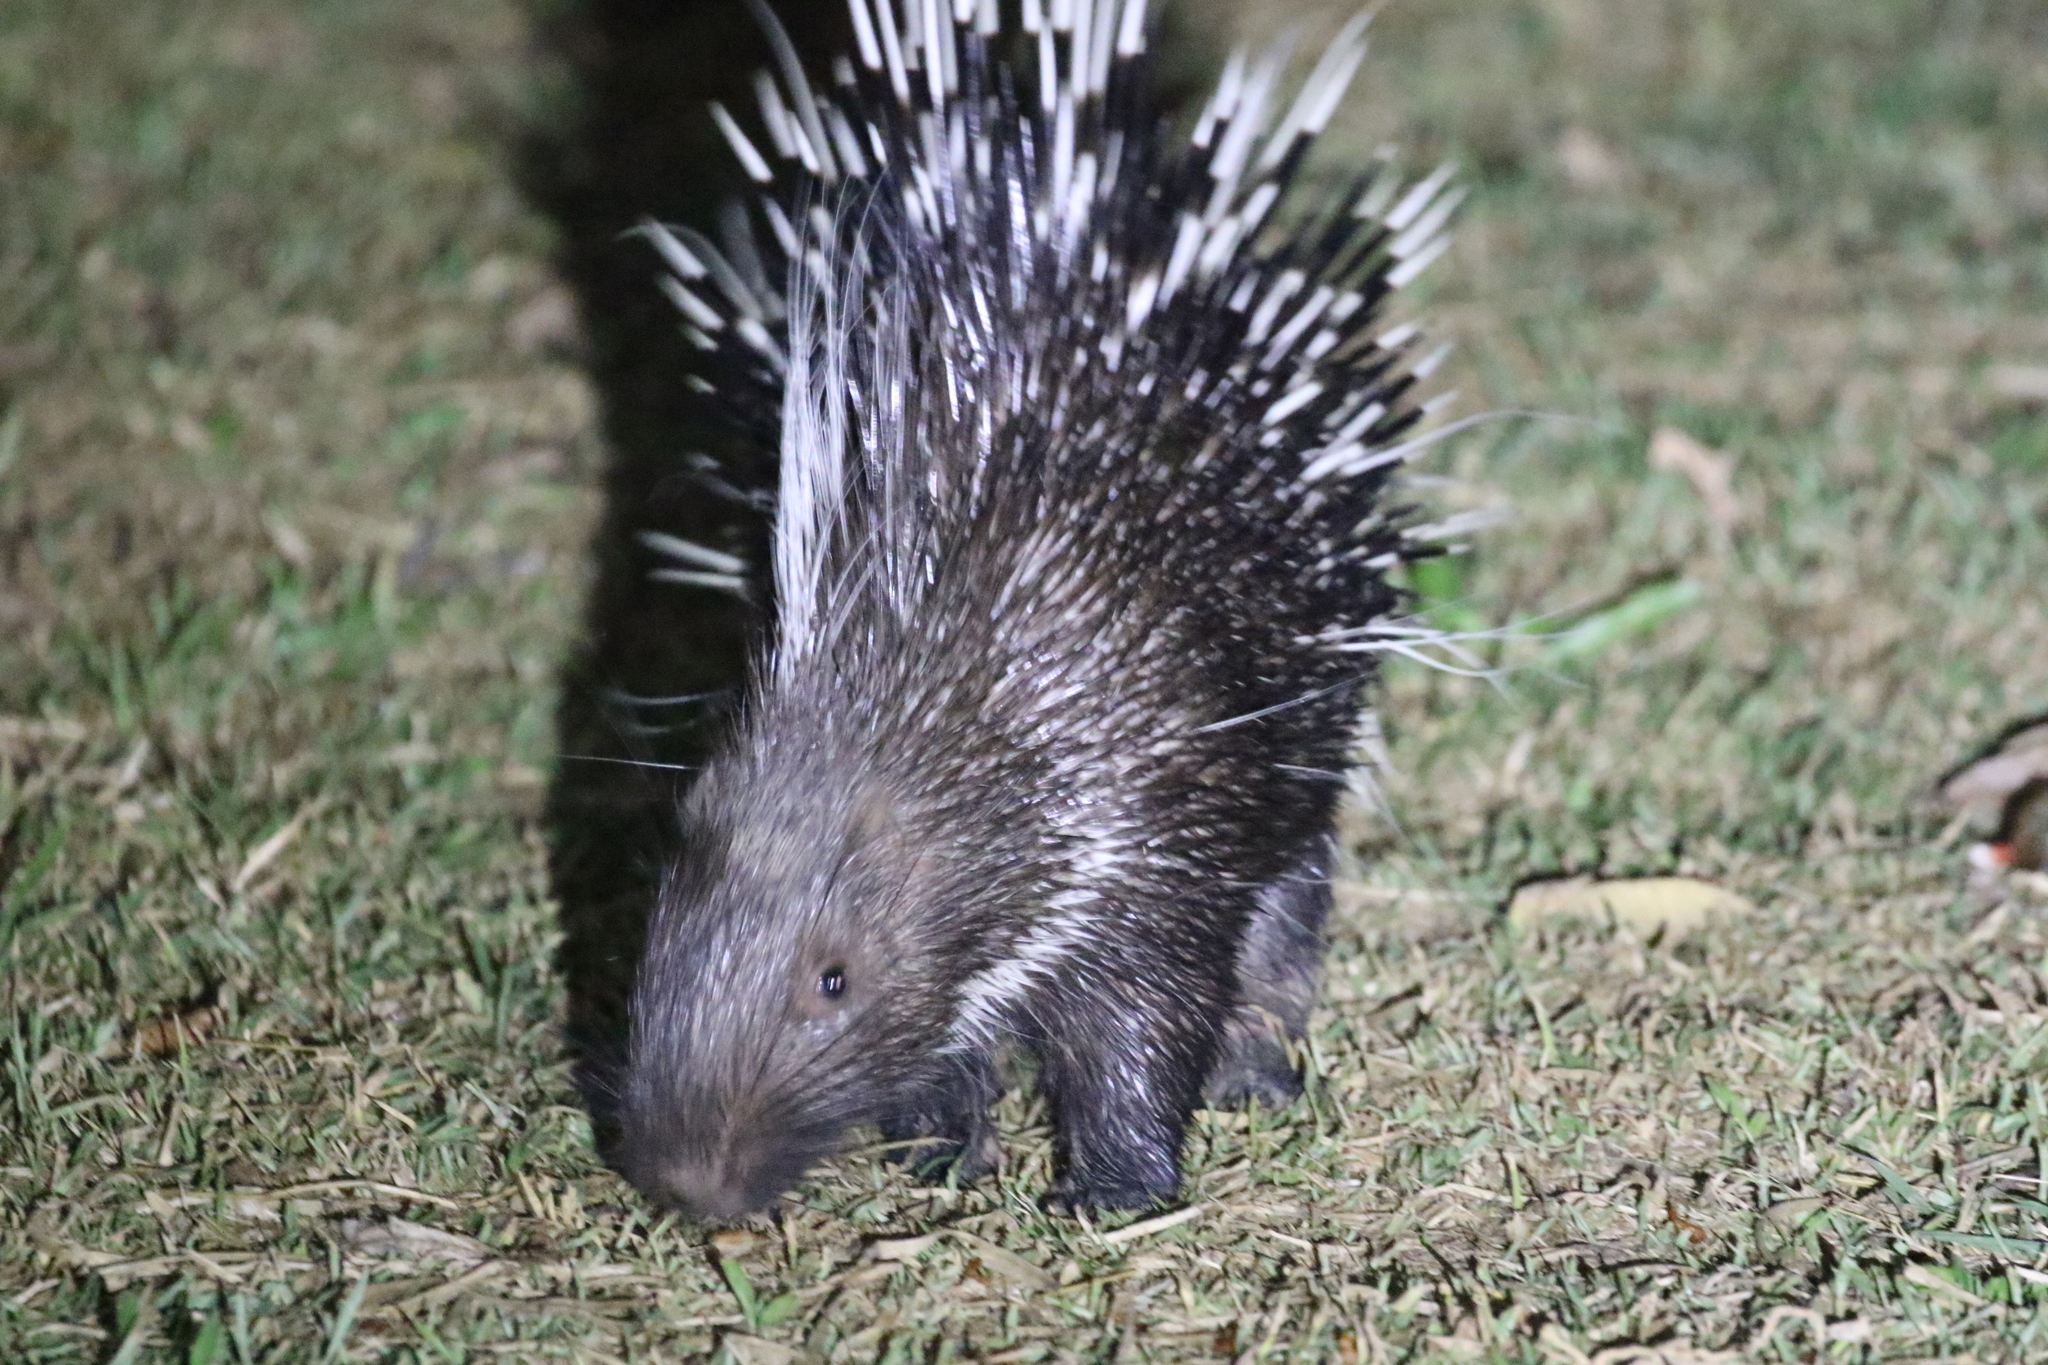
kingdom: Animalia
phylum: Chordata
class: Mammalia
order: Rodentia
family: Hystricidae
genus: Hystrix
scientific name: Hystrix brachyura
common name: Malayan porcupine
